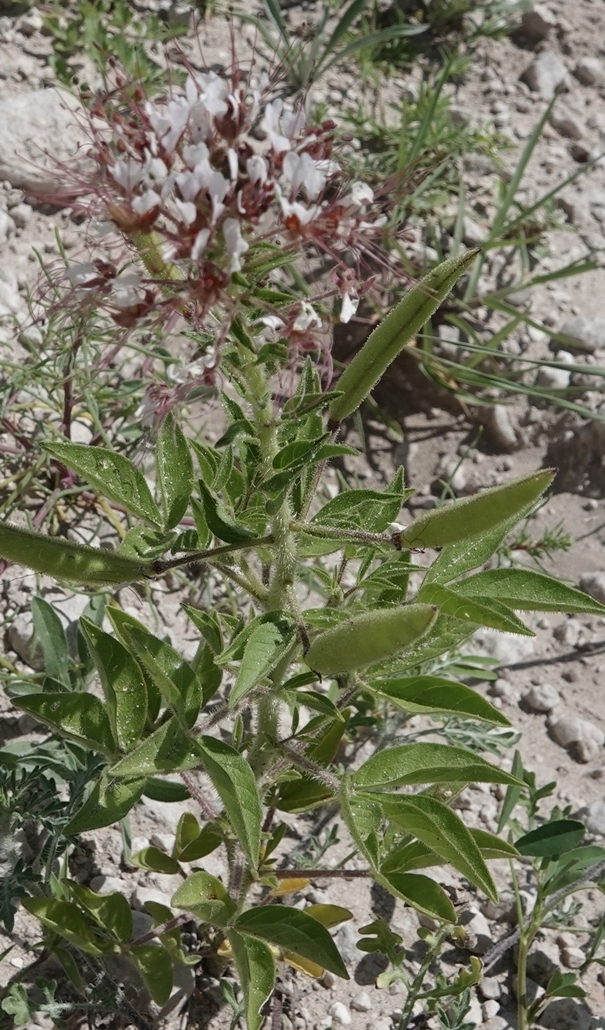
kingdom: Plantae
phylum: Tracheophyta
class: Magnoliopsida
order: Brassicales
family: Cleomaceae
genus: Polanisia
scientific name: Polanisia dodecandra
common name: Clammyweed
